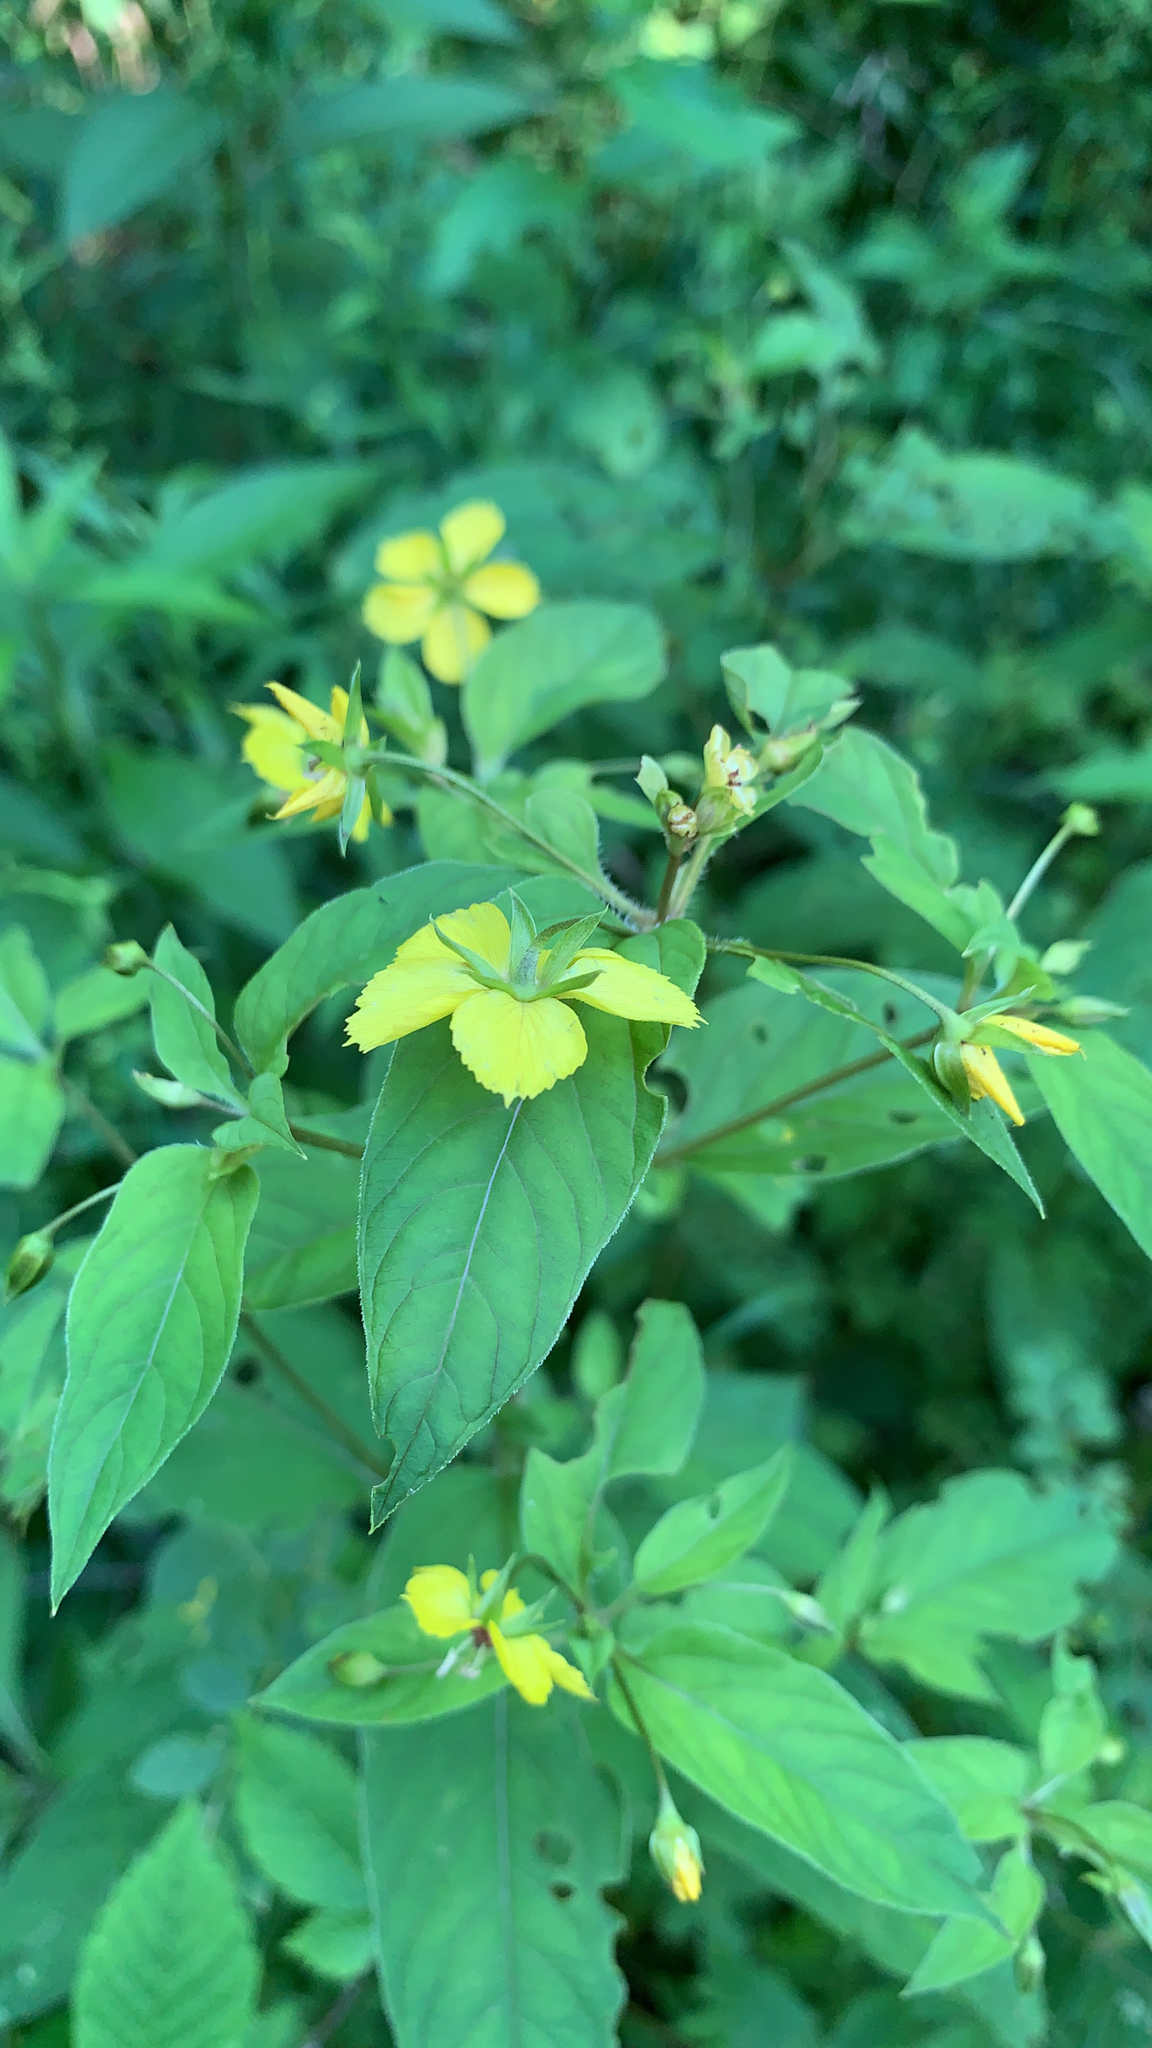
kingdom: Plantae
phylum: Tracheophyta
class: Magnoliopsida
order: Ericales
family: Primulaceae
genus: Lysimachia
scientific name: Lysimachia ciliata
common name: Fringed loosestrife
